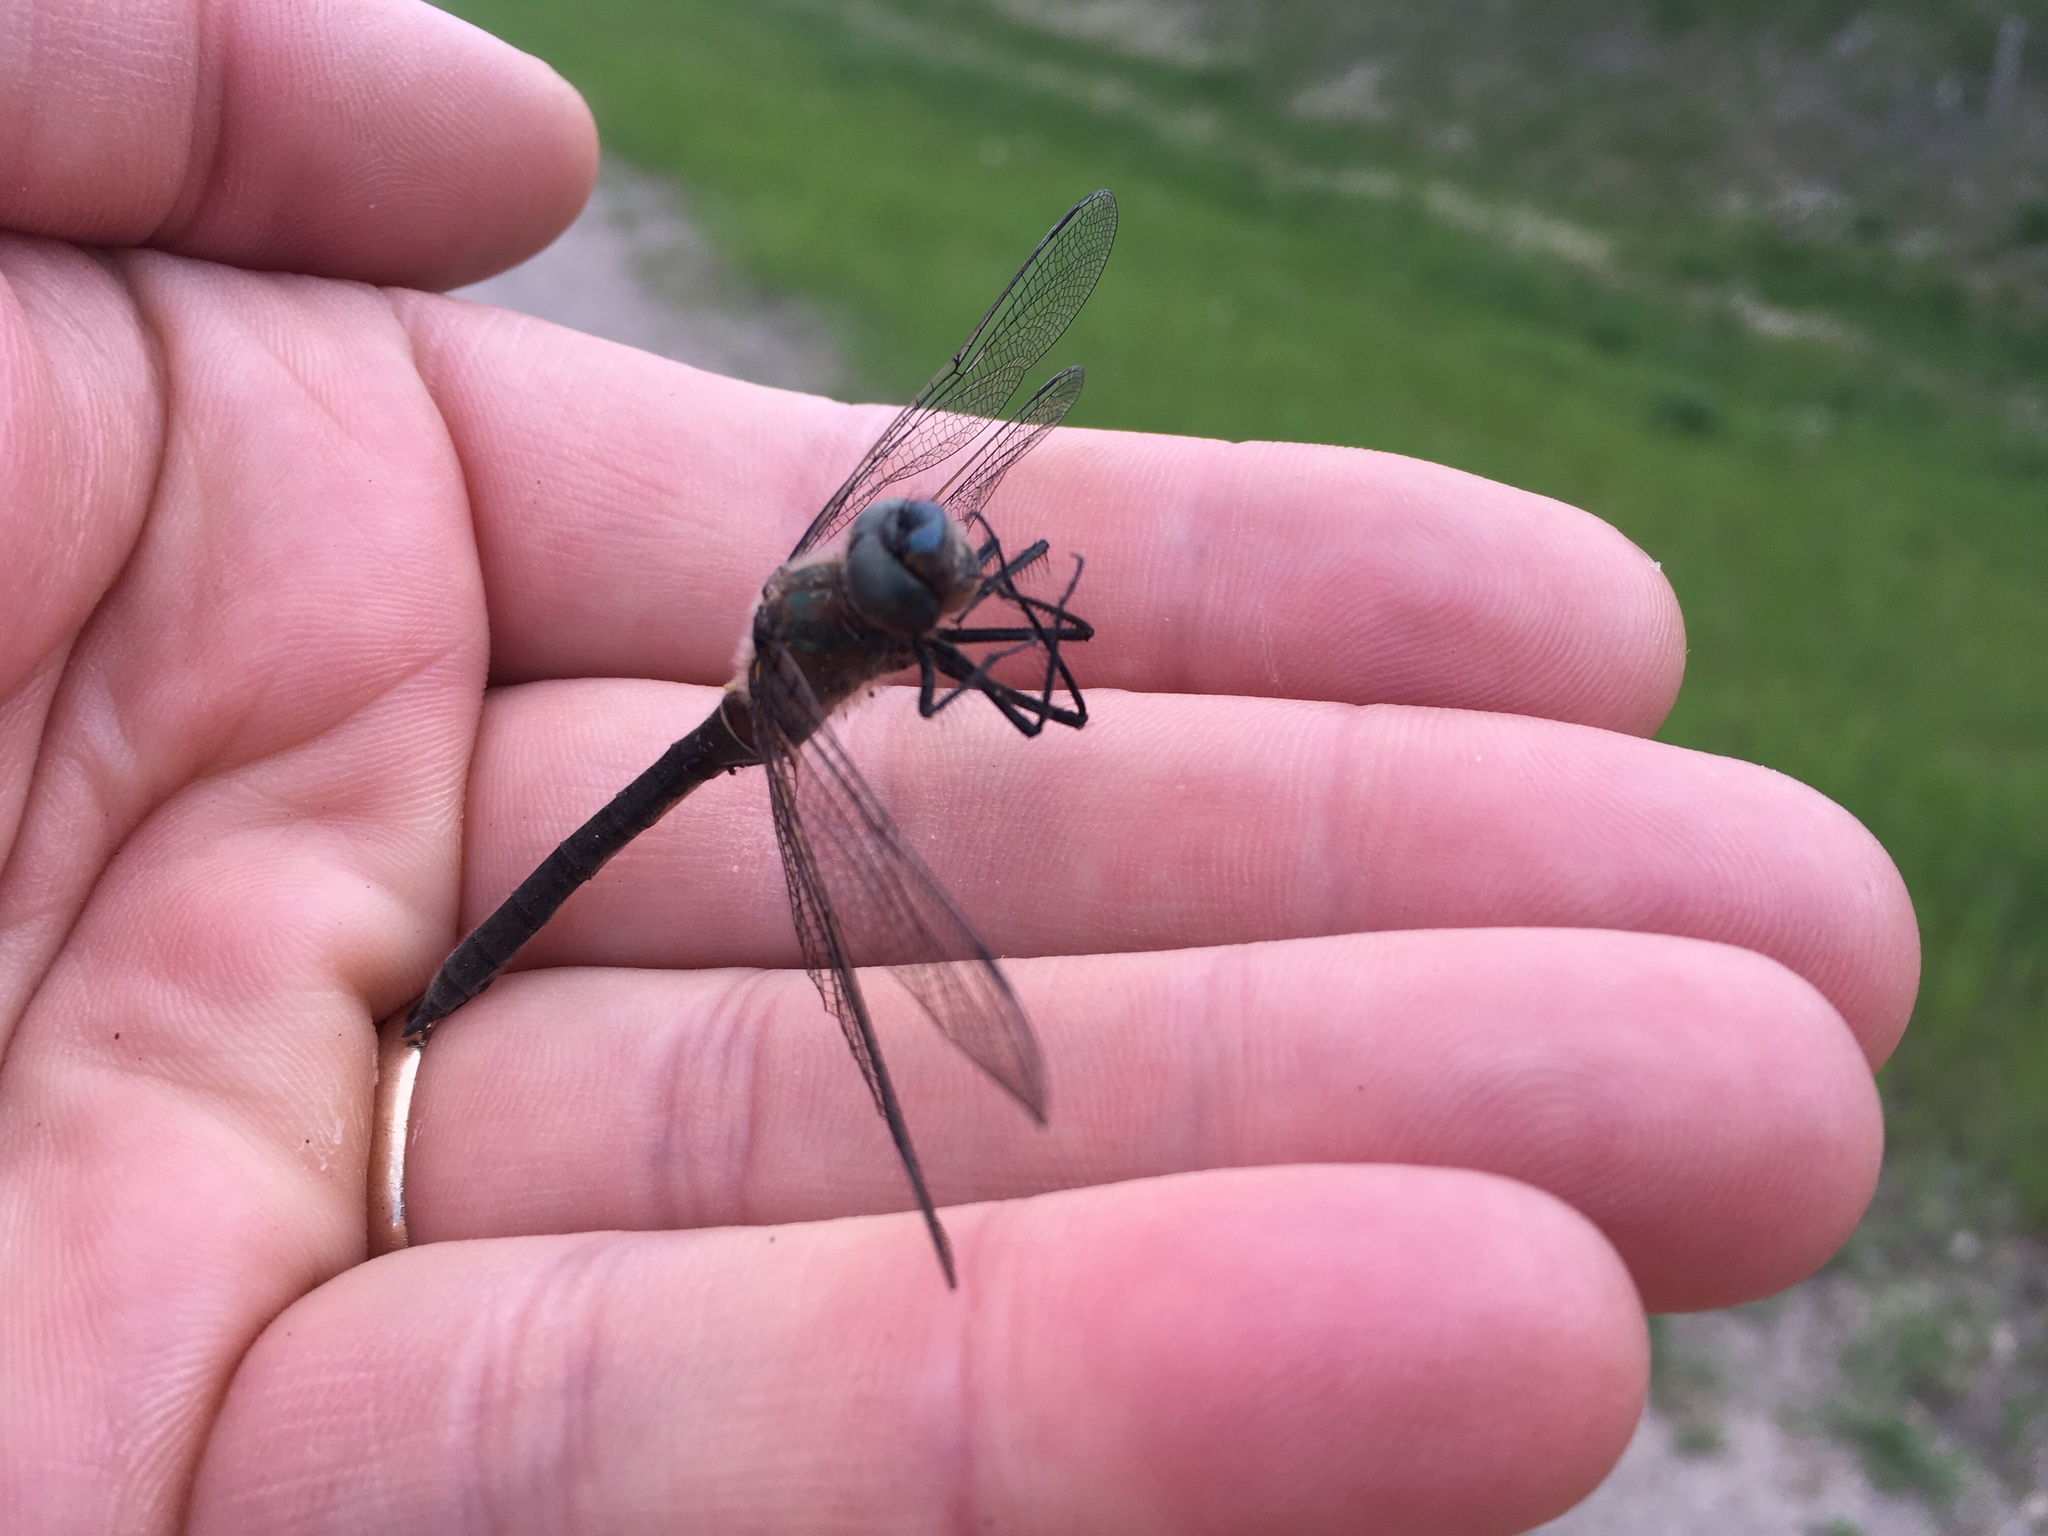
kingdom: Animalia
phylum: Arthropoda
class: Insecta
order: Odonata
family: Corduliidae
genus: Cordulia
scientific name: Cordulia shurtleffii
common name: American emerald
